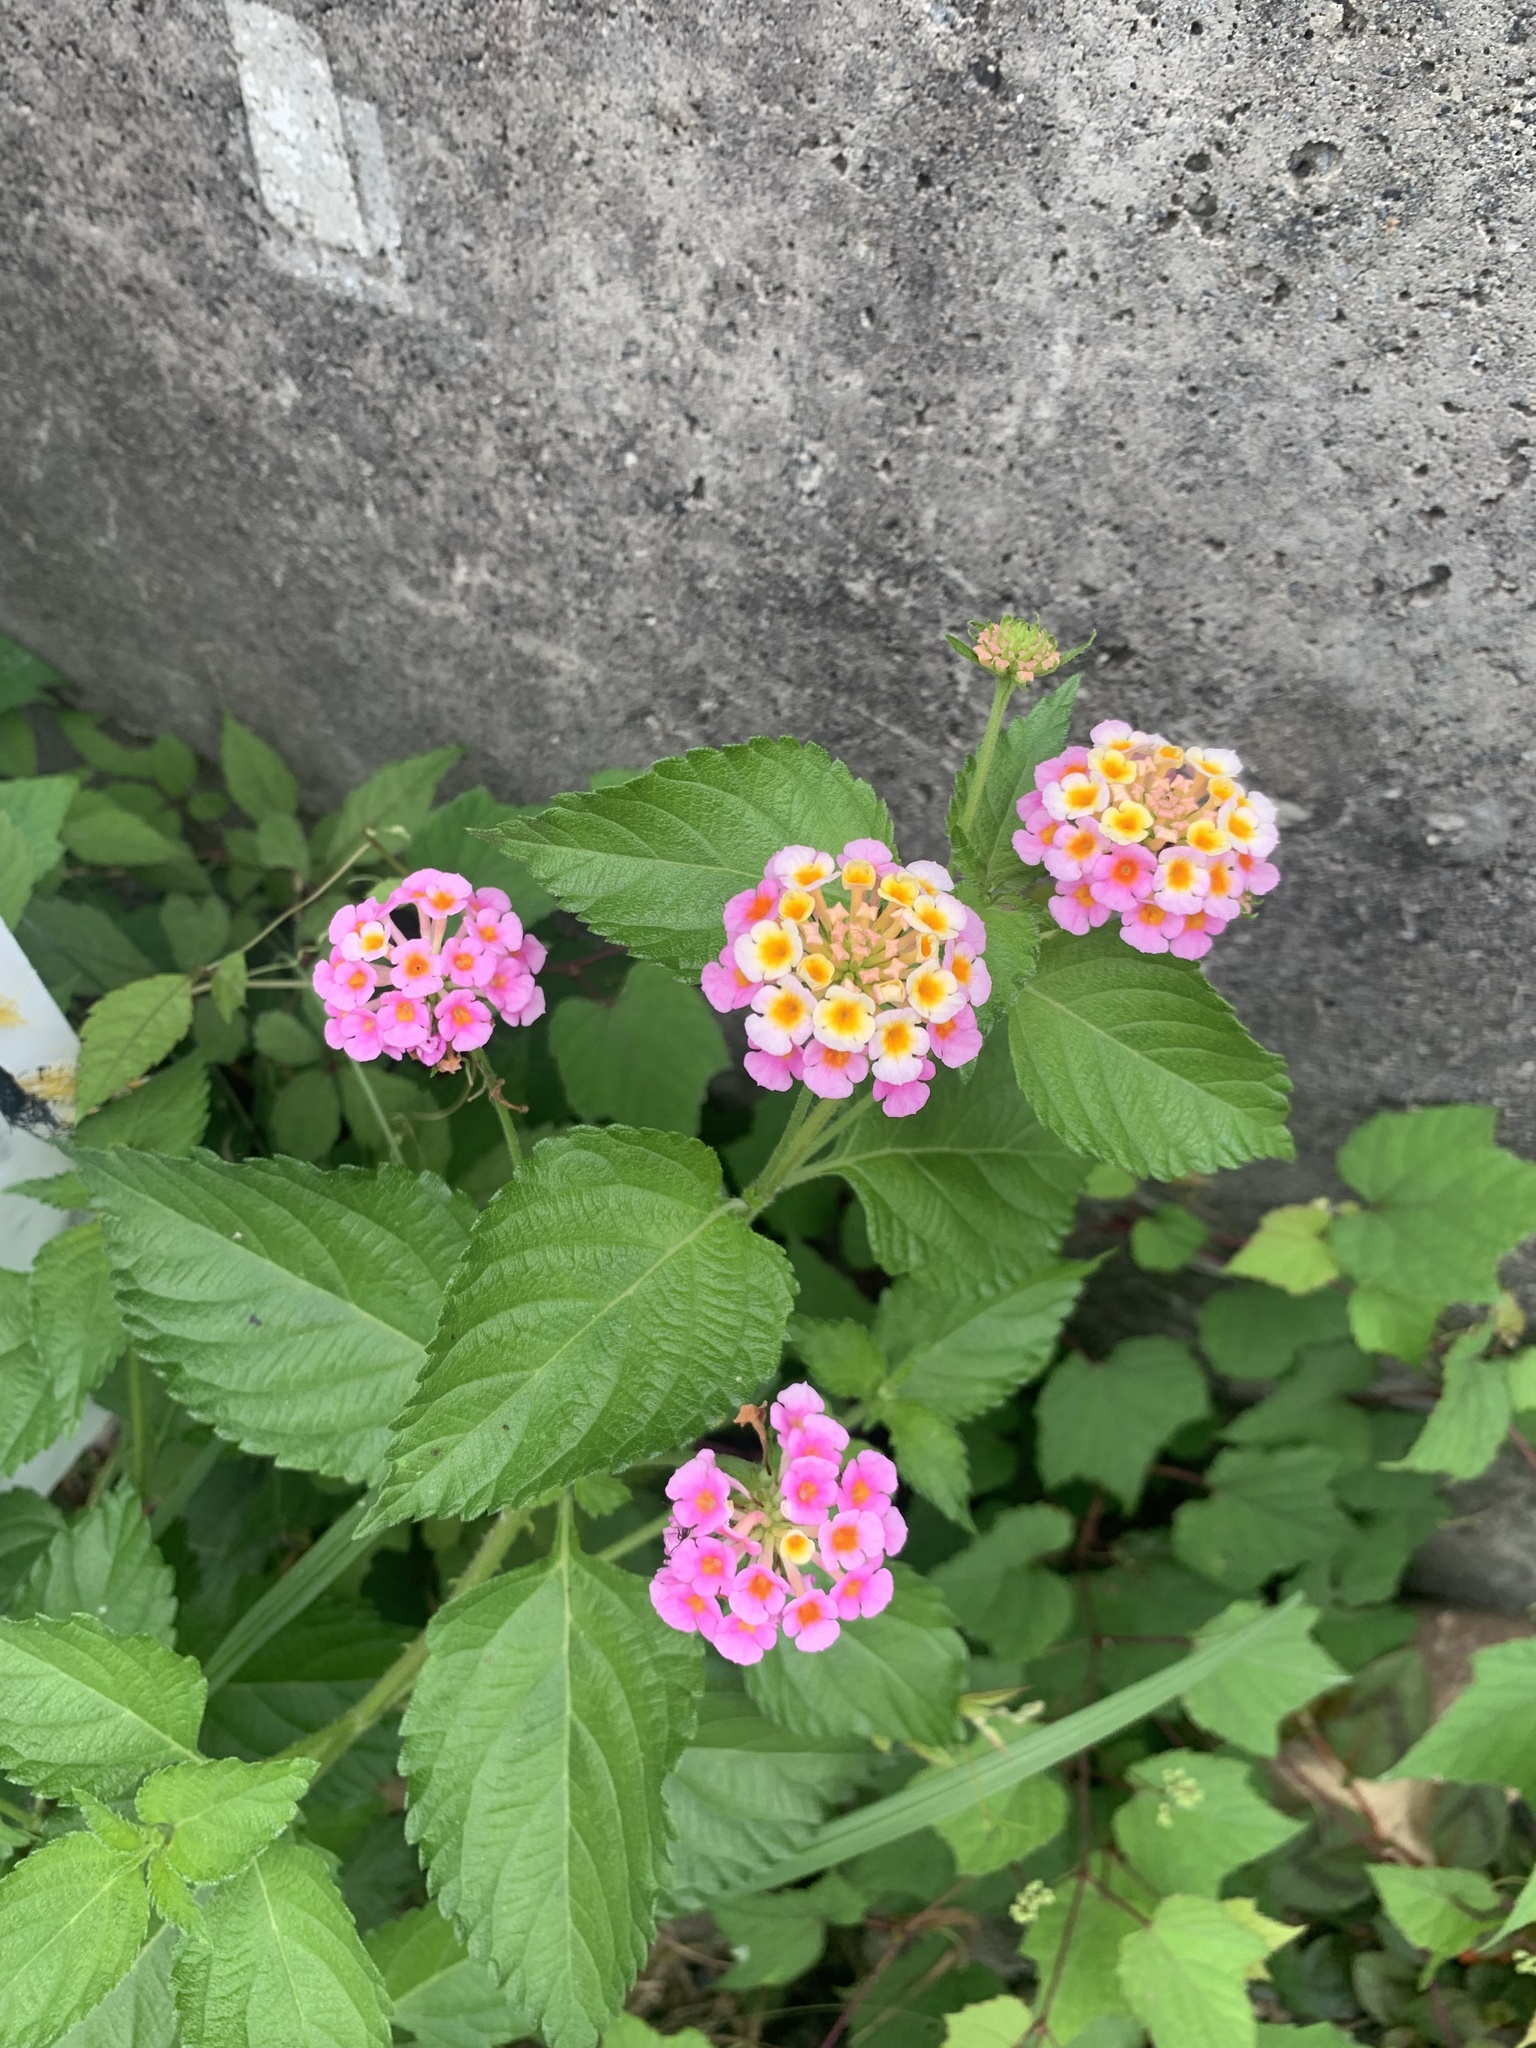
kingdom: Plantae
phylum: Tracheophyta
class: Magnoliopsida
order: Lamiales
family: Verbenaceae
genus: Lantana
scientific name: Lantana camara
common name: Lantana
